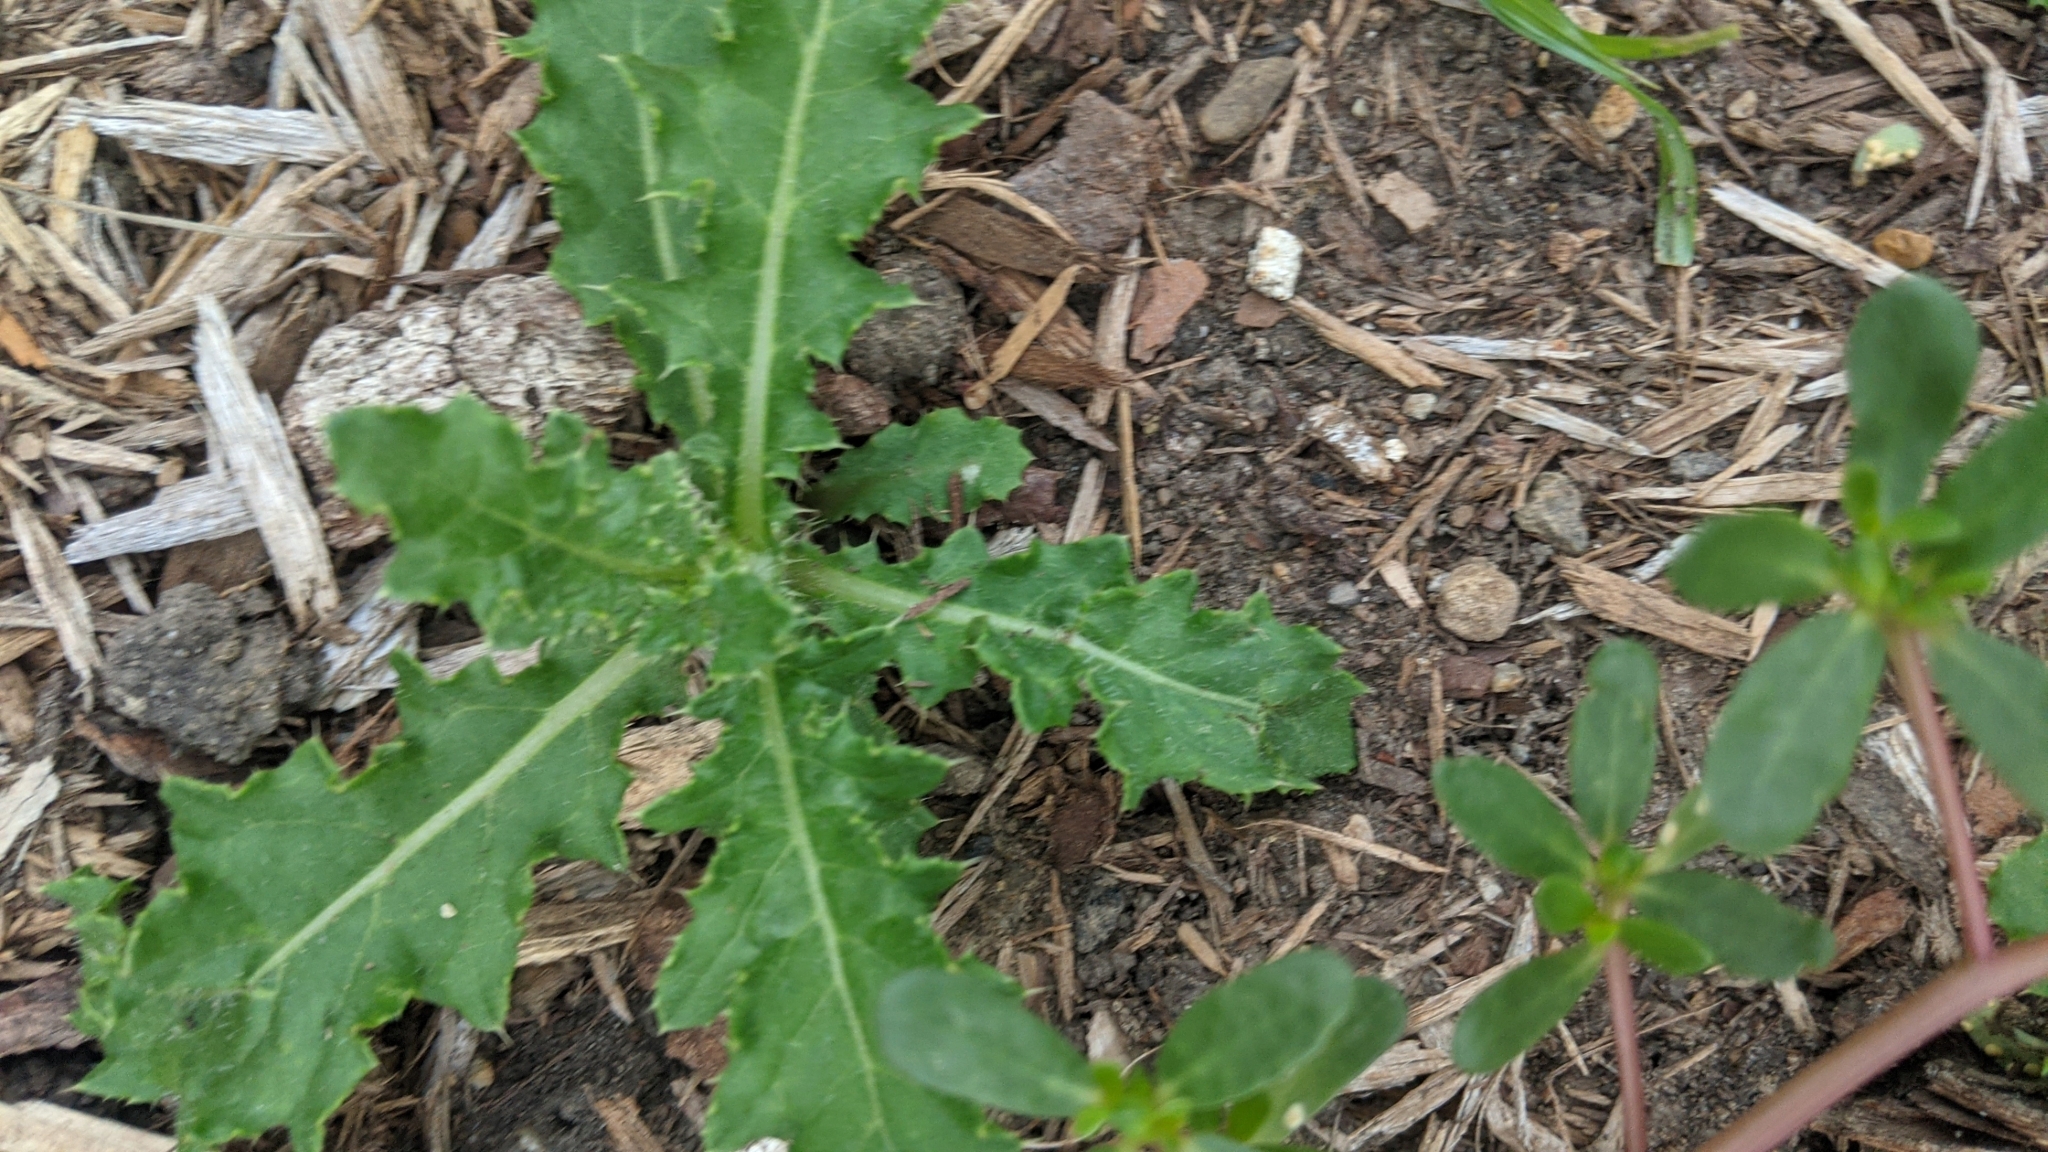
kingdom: Plantae
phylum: Tracheophyta
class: Magnoliopsida
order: Asterales
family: Asteraceae
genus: Cirsium
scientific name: Cirsium arvense
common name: Creeping thistle
